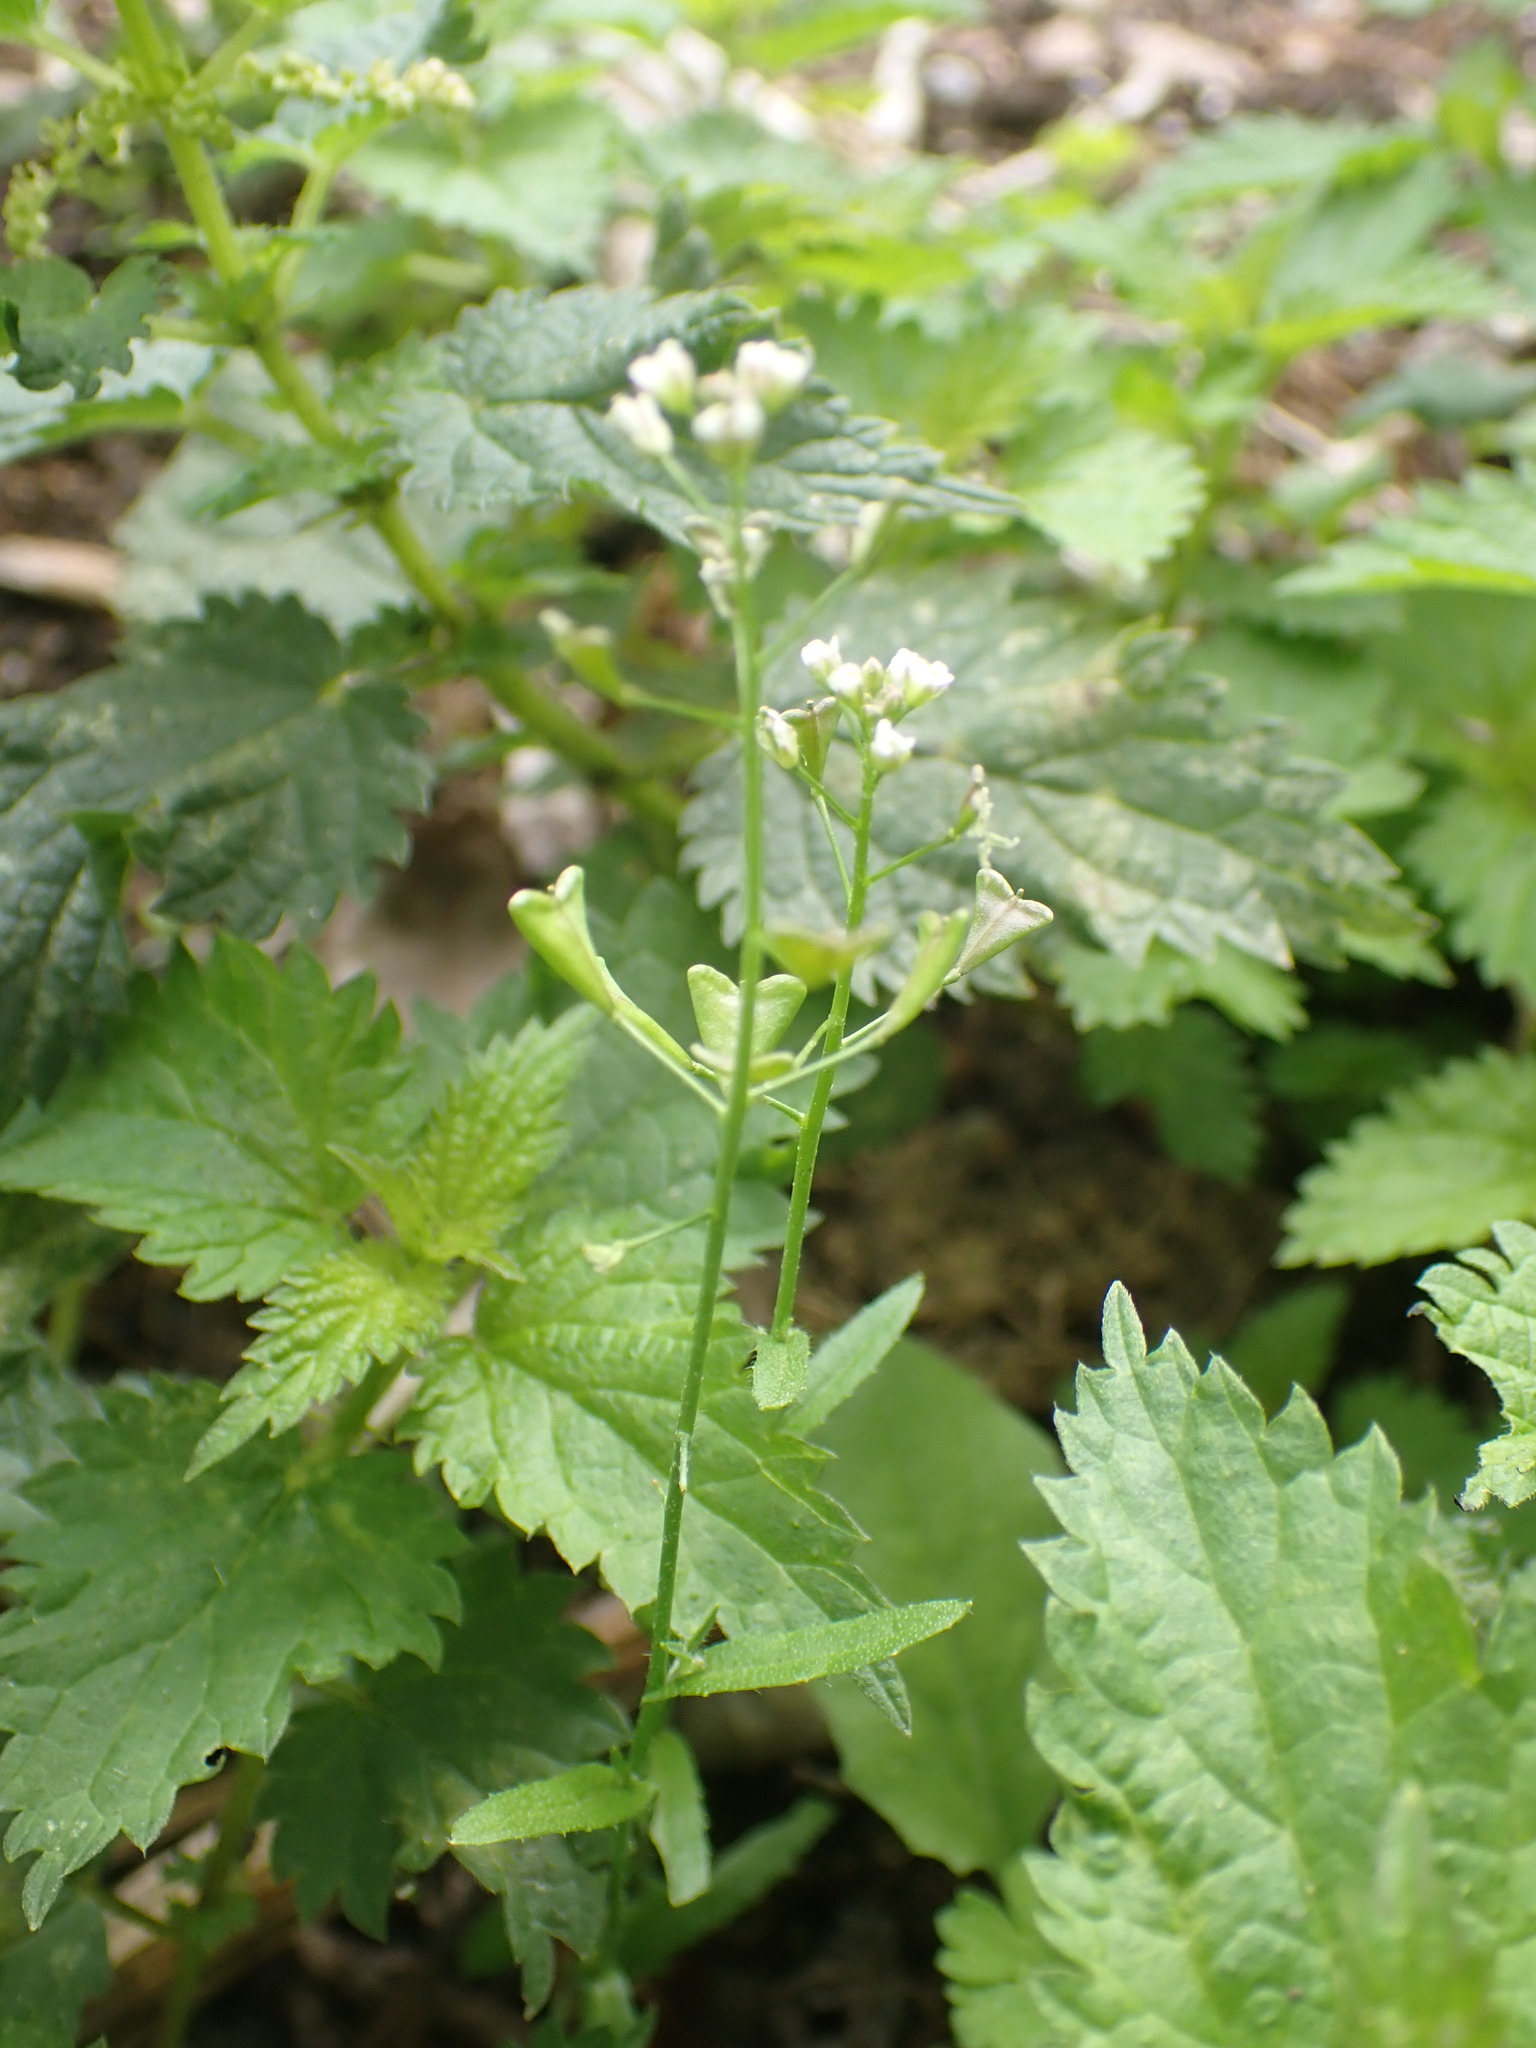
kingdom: Plantae
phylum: Tracheophyta
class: Magnoliopsida
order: Brassicales
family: Brassicaceae
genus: Capsella
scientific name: Capsella bursa-pastoris
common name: Shepherd's purse
